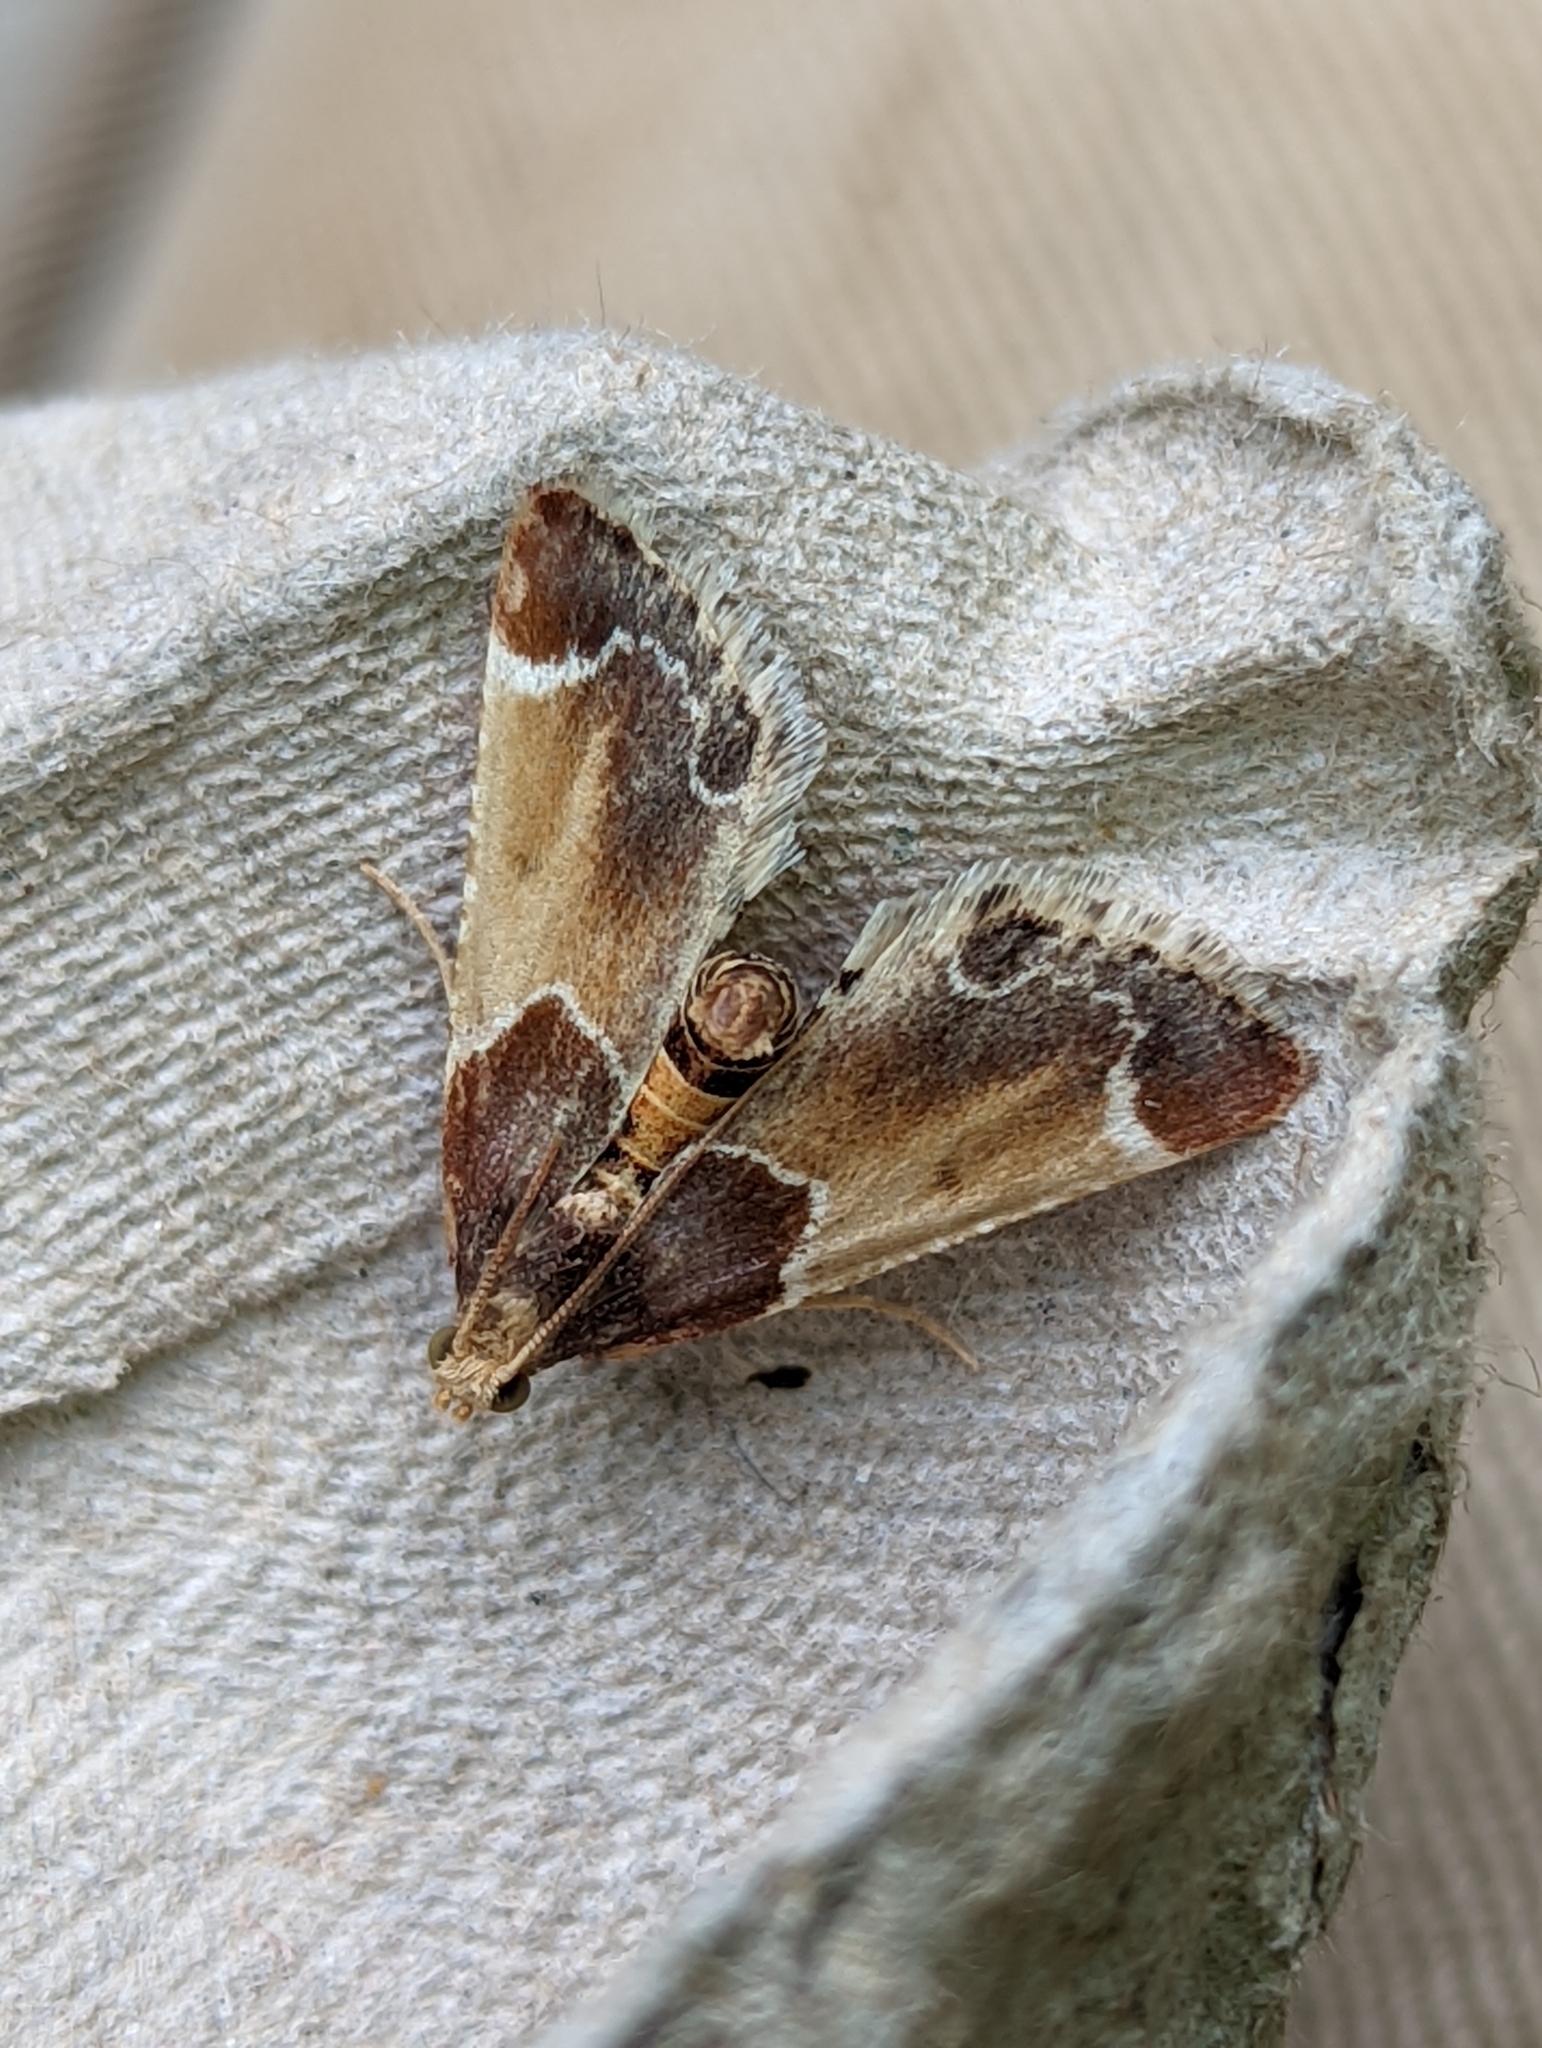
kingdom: Animalia
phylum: Arthropoda
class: Insecta
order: Lepidoptera
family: Pyralidae
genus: Pyralis
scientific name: Pyralis farinalis
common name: Meal moth
